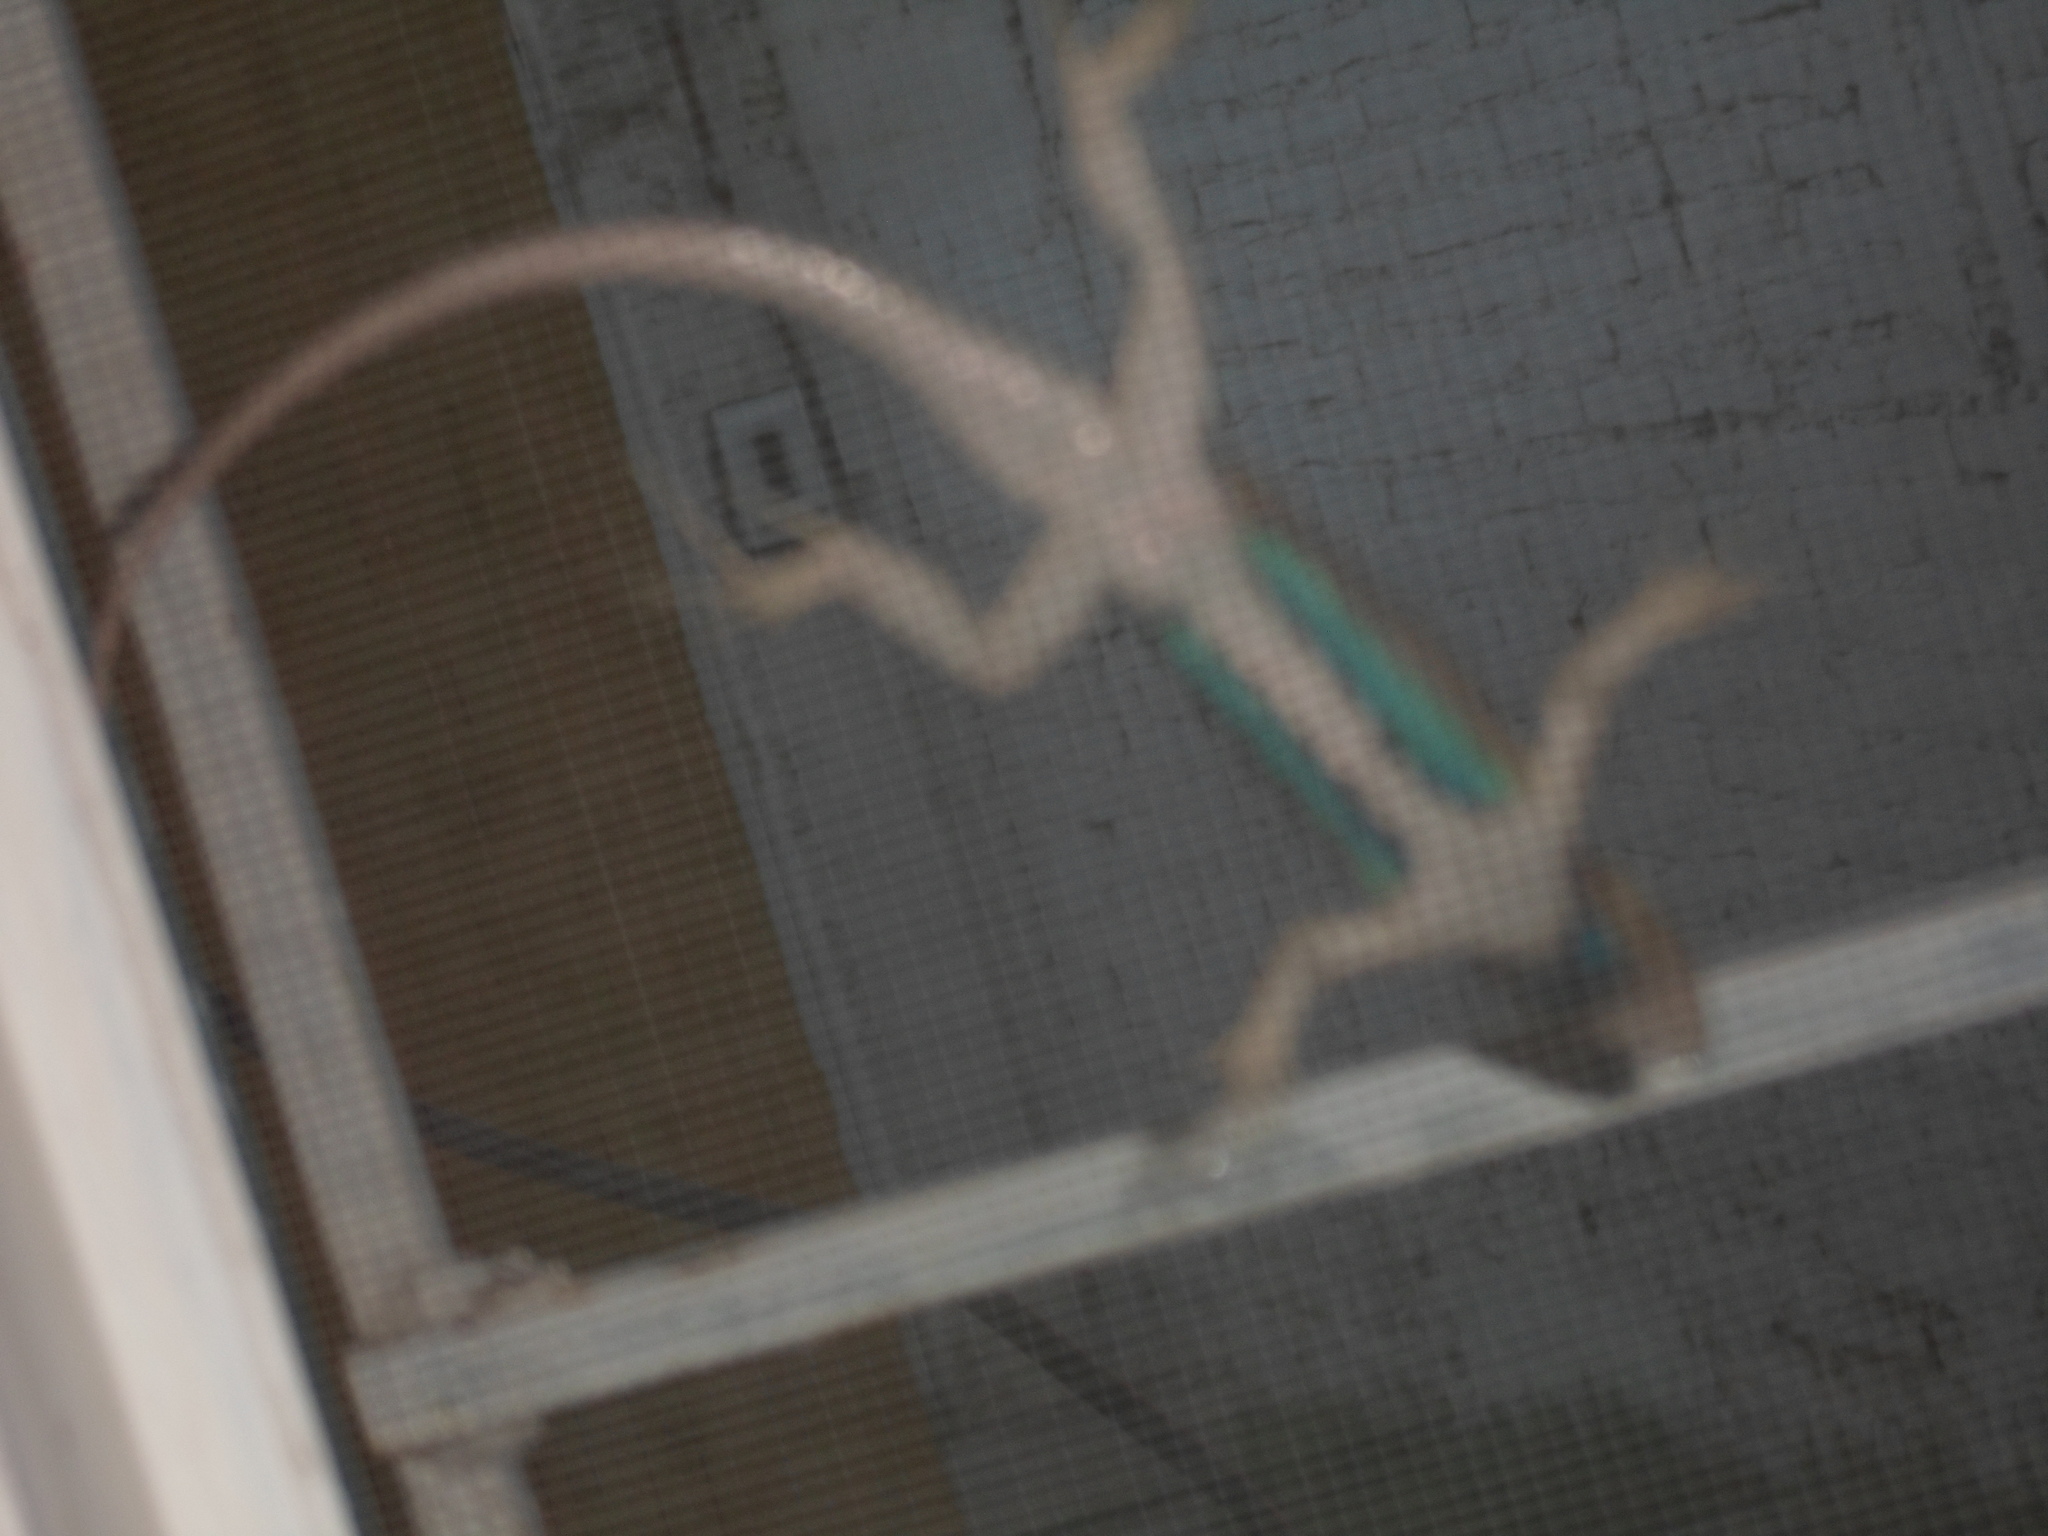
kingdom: Animalia
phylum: Chordata
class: Squamata
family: Phrynosomatidae
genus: Sceloporus
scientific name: Sceloporus edbelli
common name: Bell's spiny lizard
